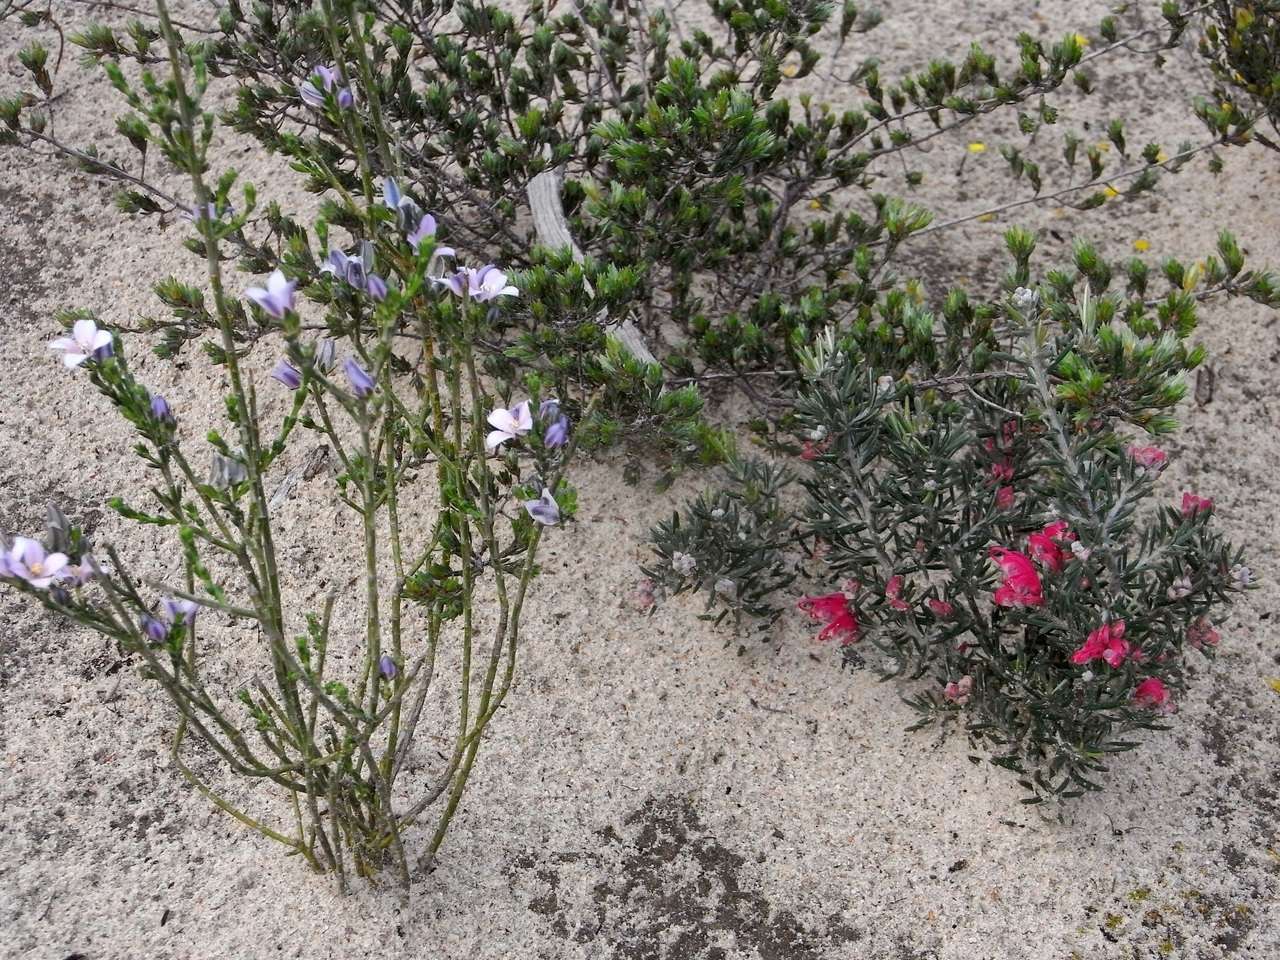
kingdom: Plantae
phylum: Tracheophyta
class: Magnoliopsida
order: Sapindales
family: Rutaceae
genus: Cyanothamnus
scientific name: Cyanothamnus coerulescens
